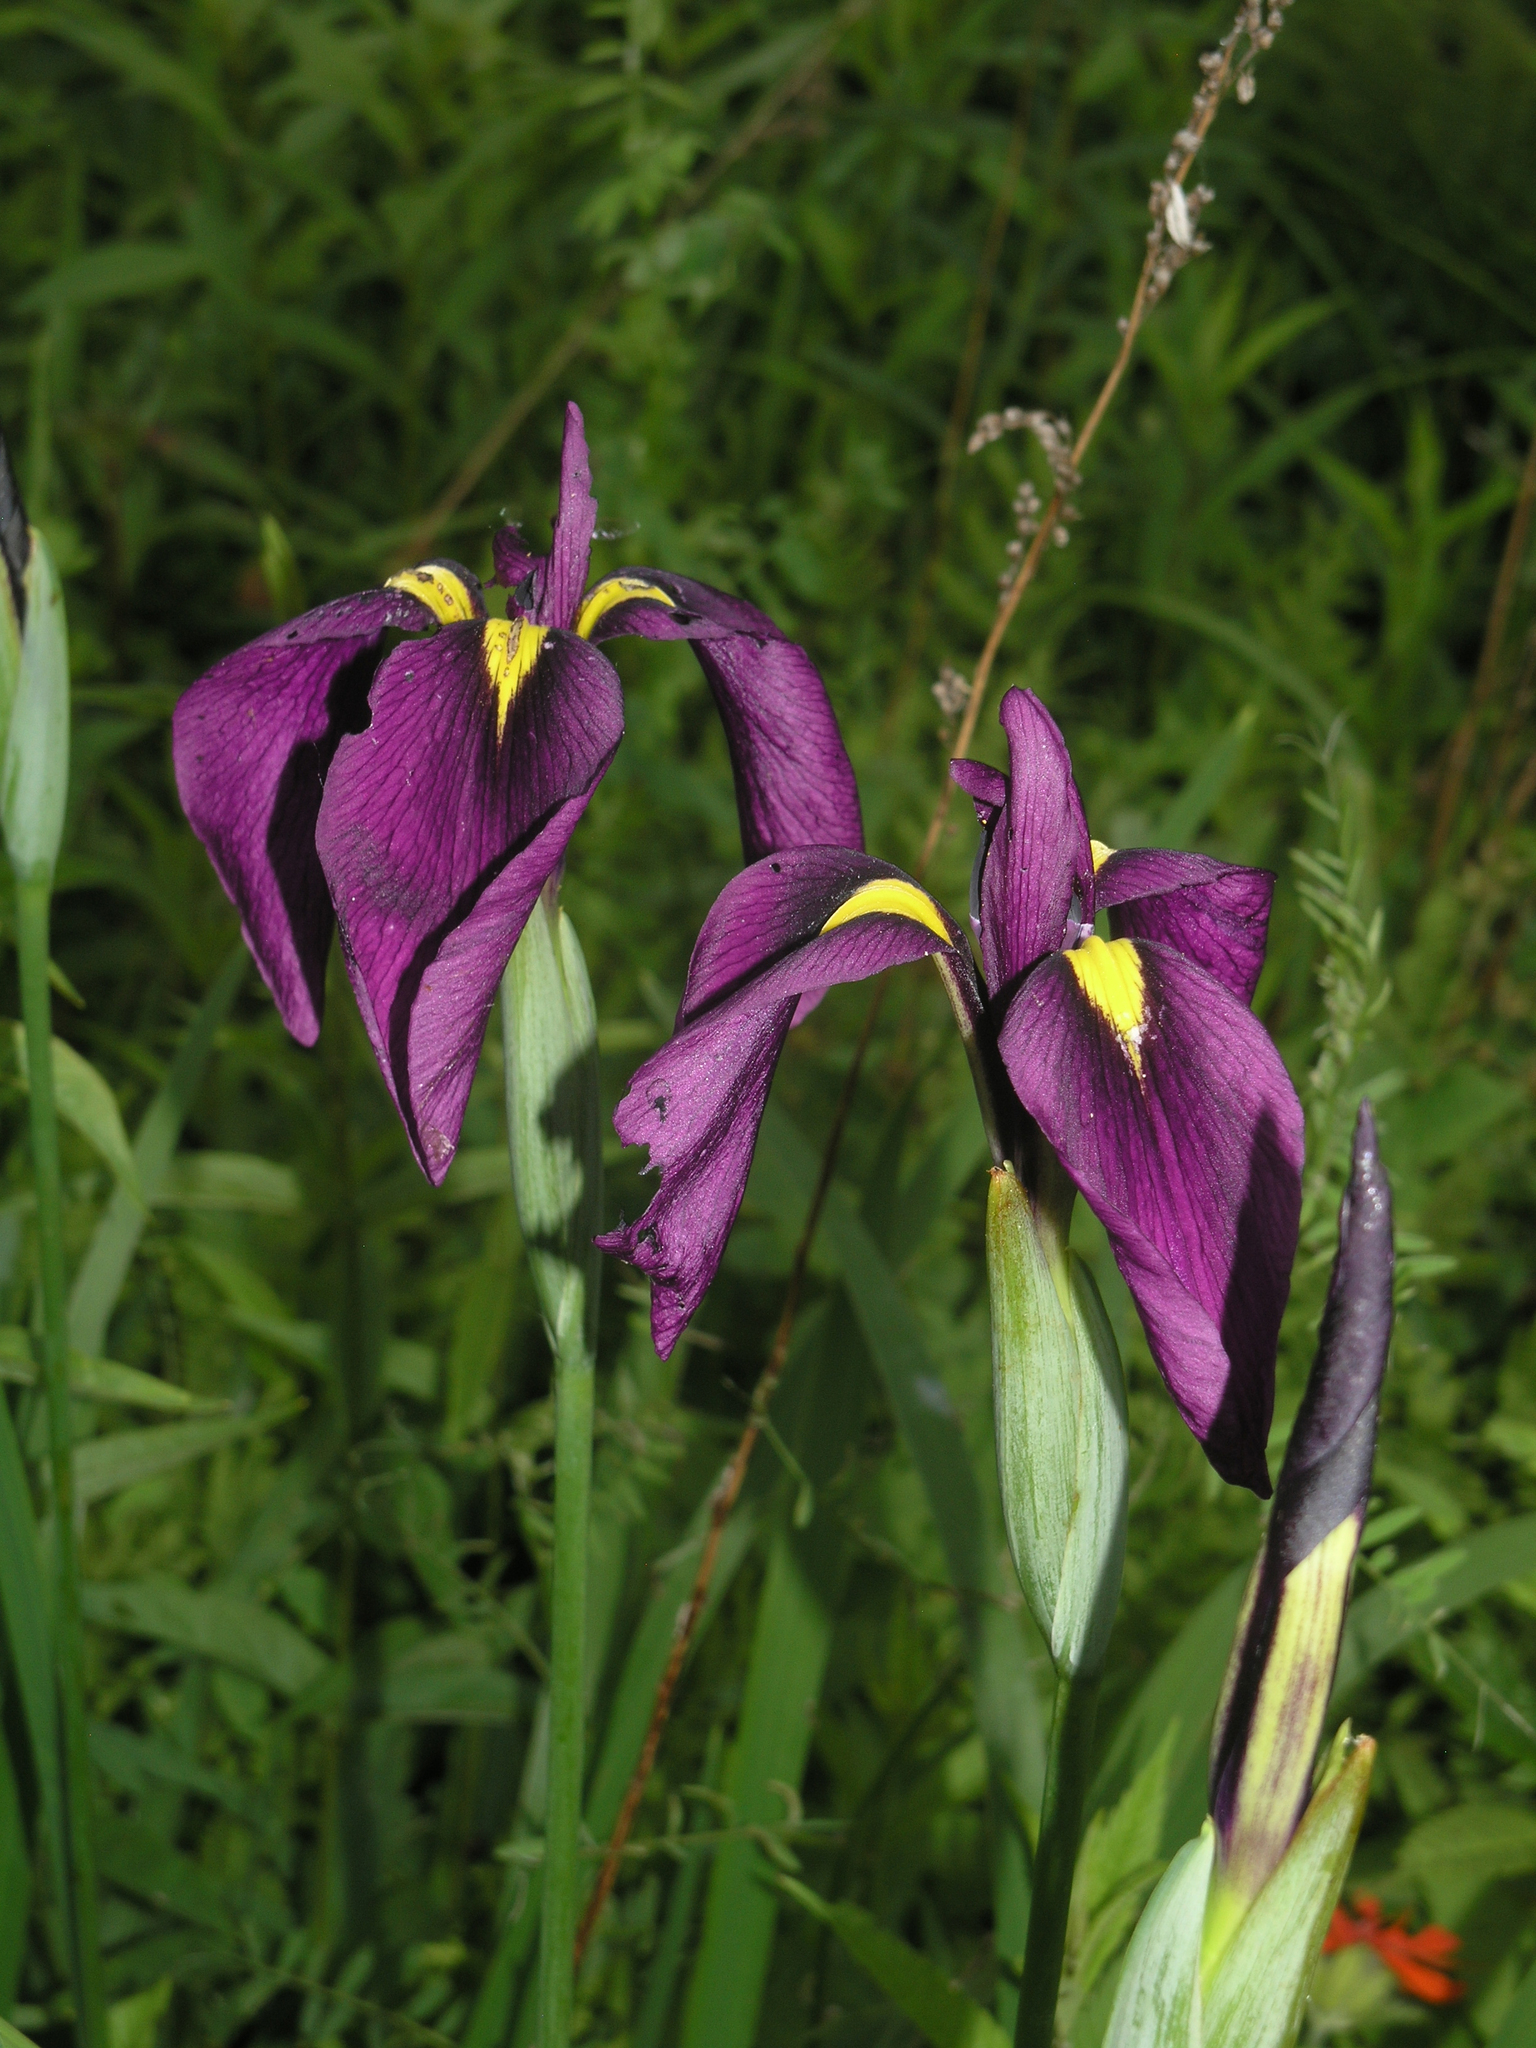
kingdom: Plantae
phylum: Tracheophyta
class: Liliopsida
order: Asparagales
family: Iridaceae
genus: Iris
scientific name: Iris ensata
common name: Beaked iris
